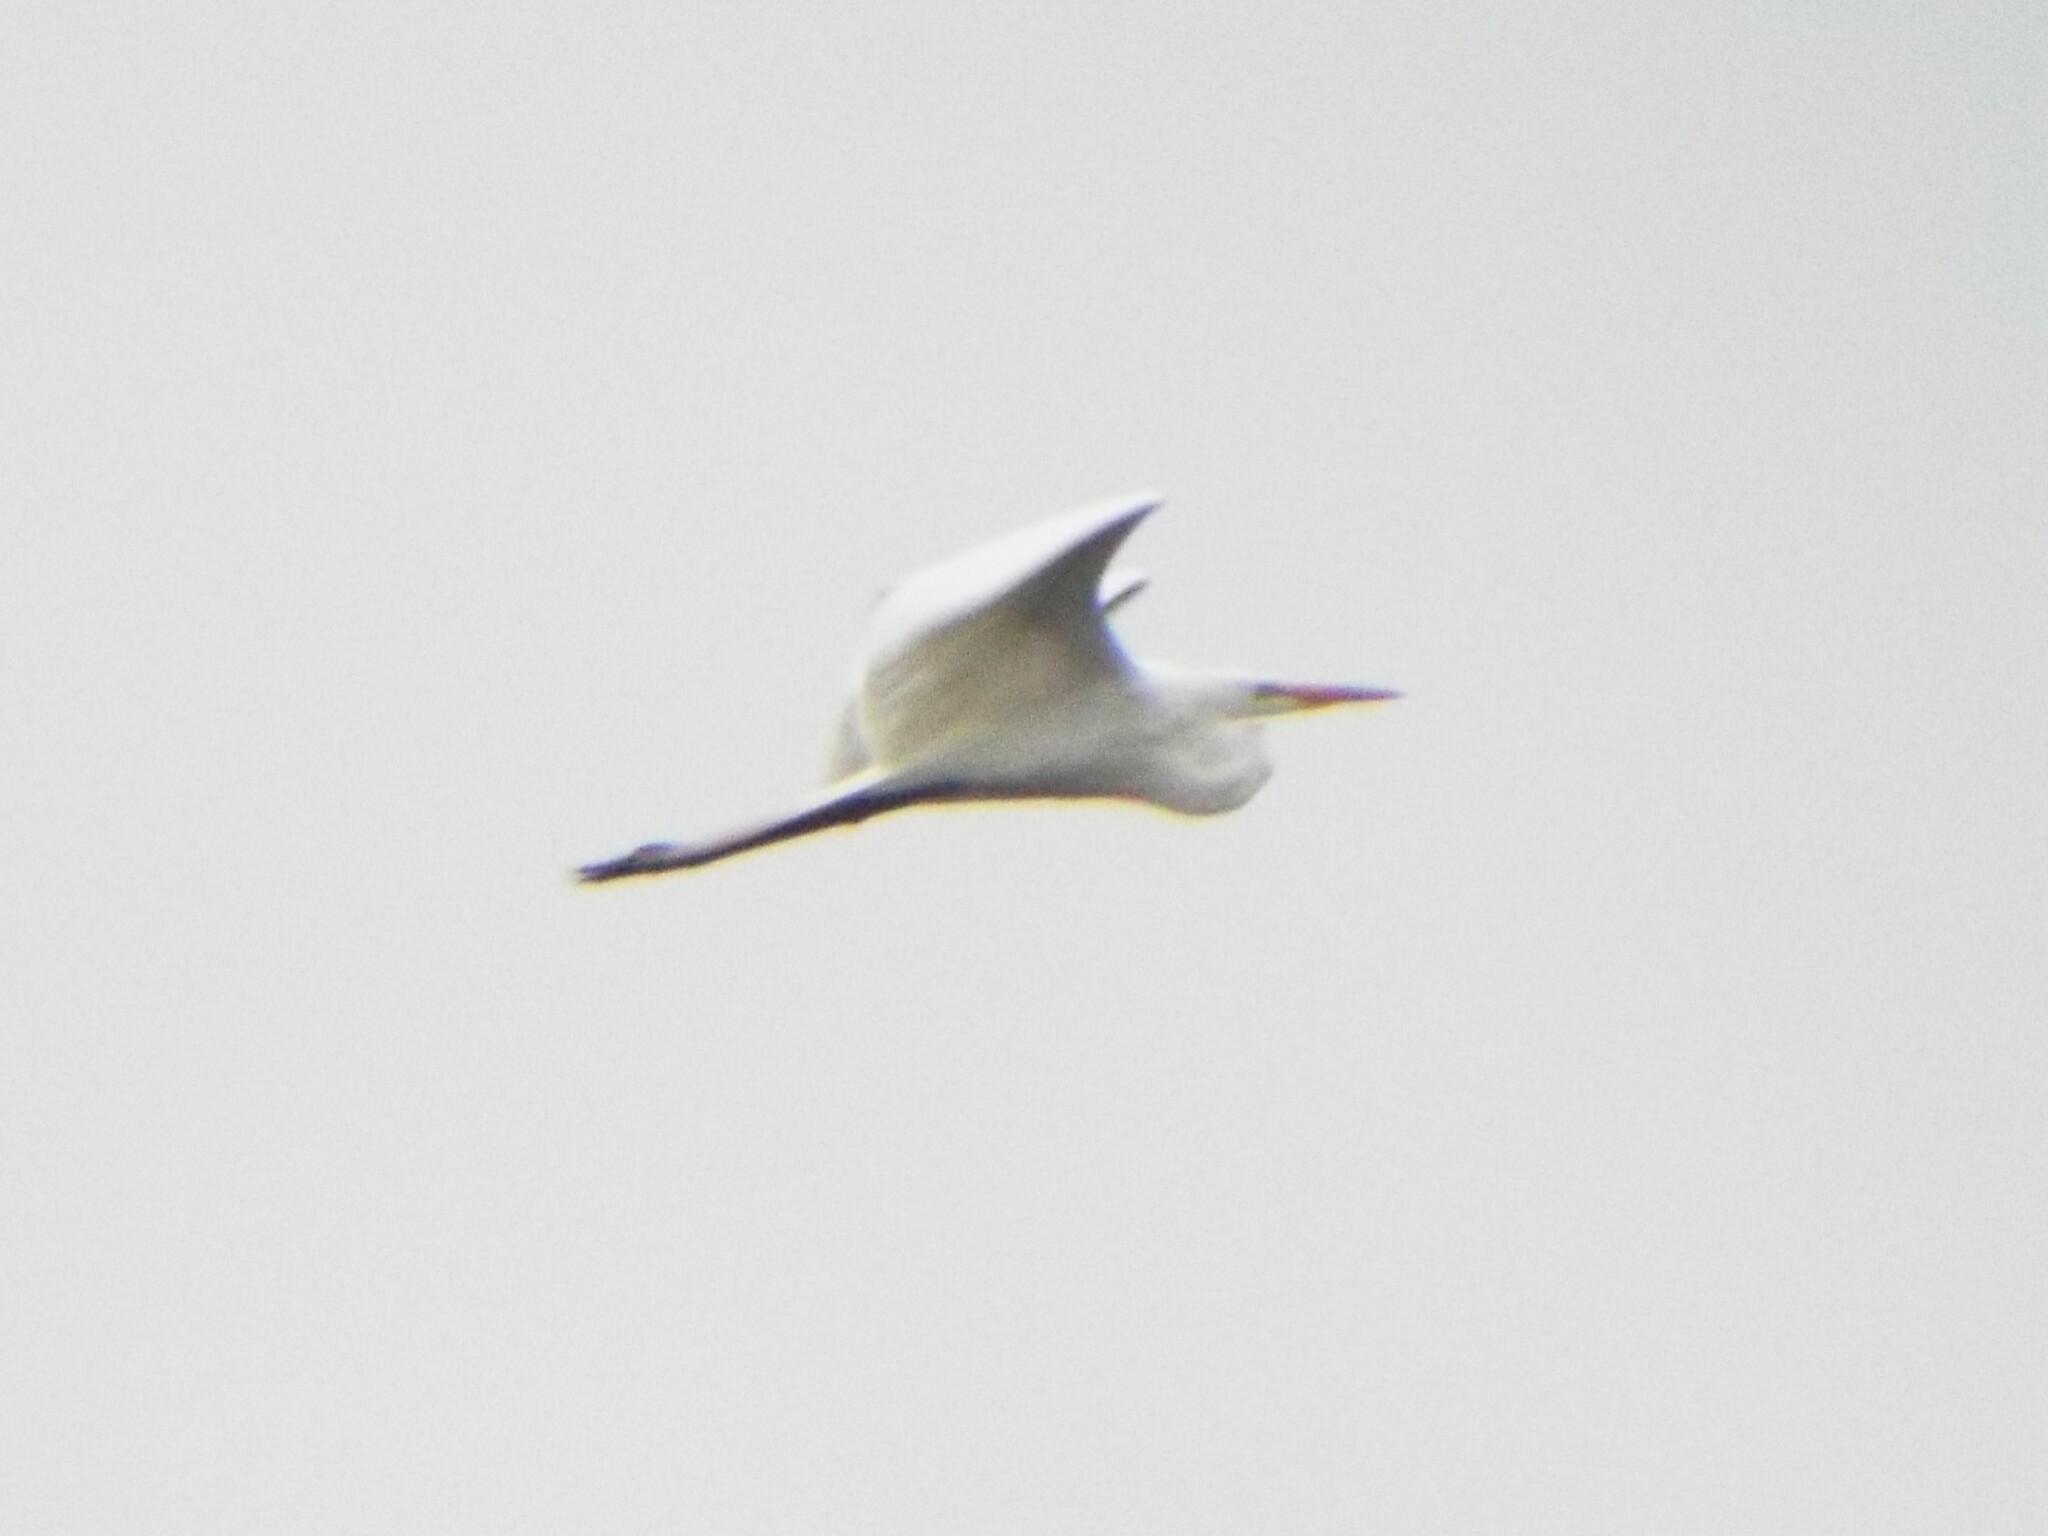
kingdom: Animalia
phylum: Chordata
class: Aves
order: Pelecaniformes
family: Ardeidae
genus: Ardea
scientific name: Ardea alba
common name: Great egret
